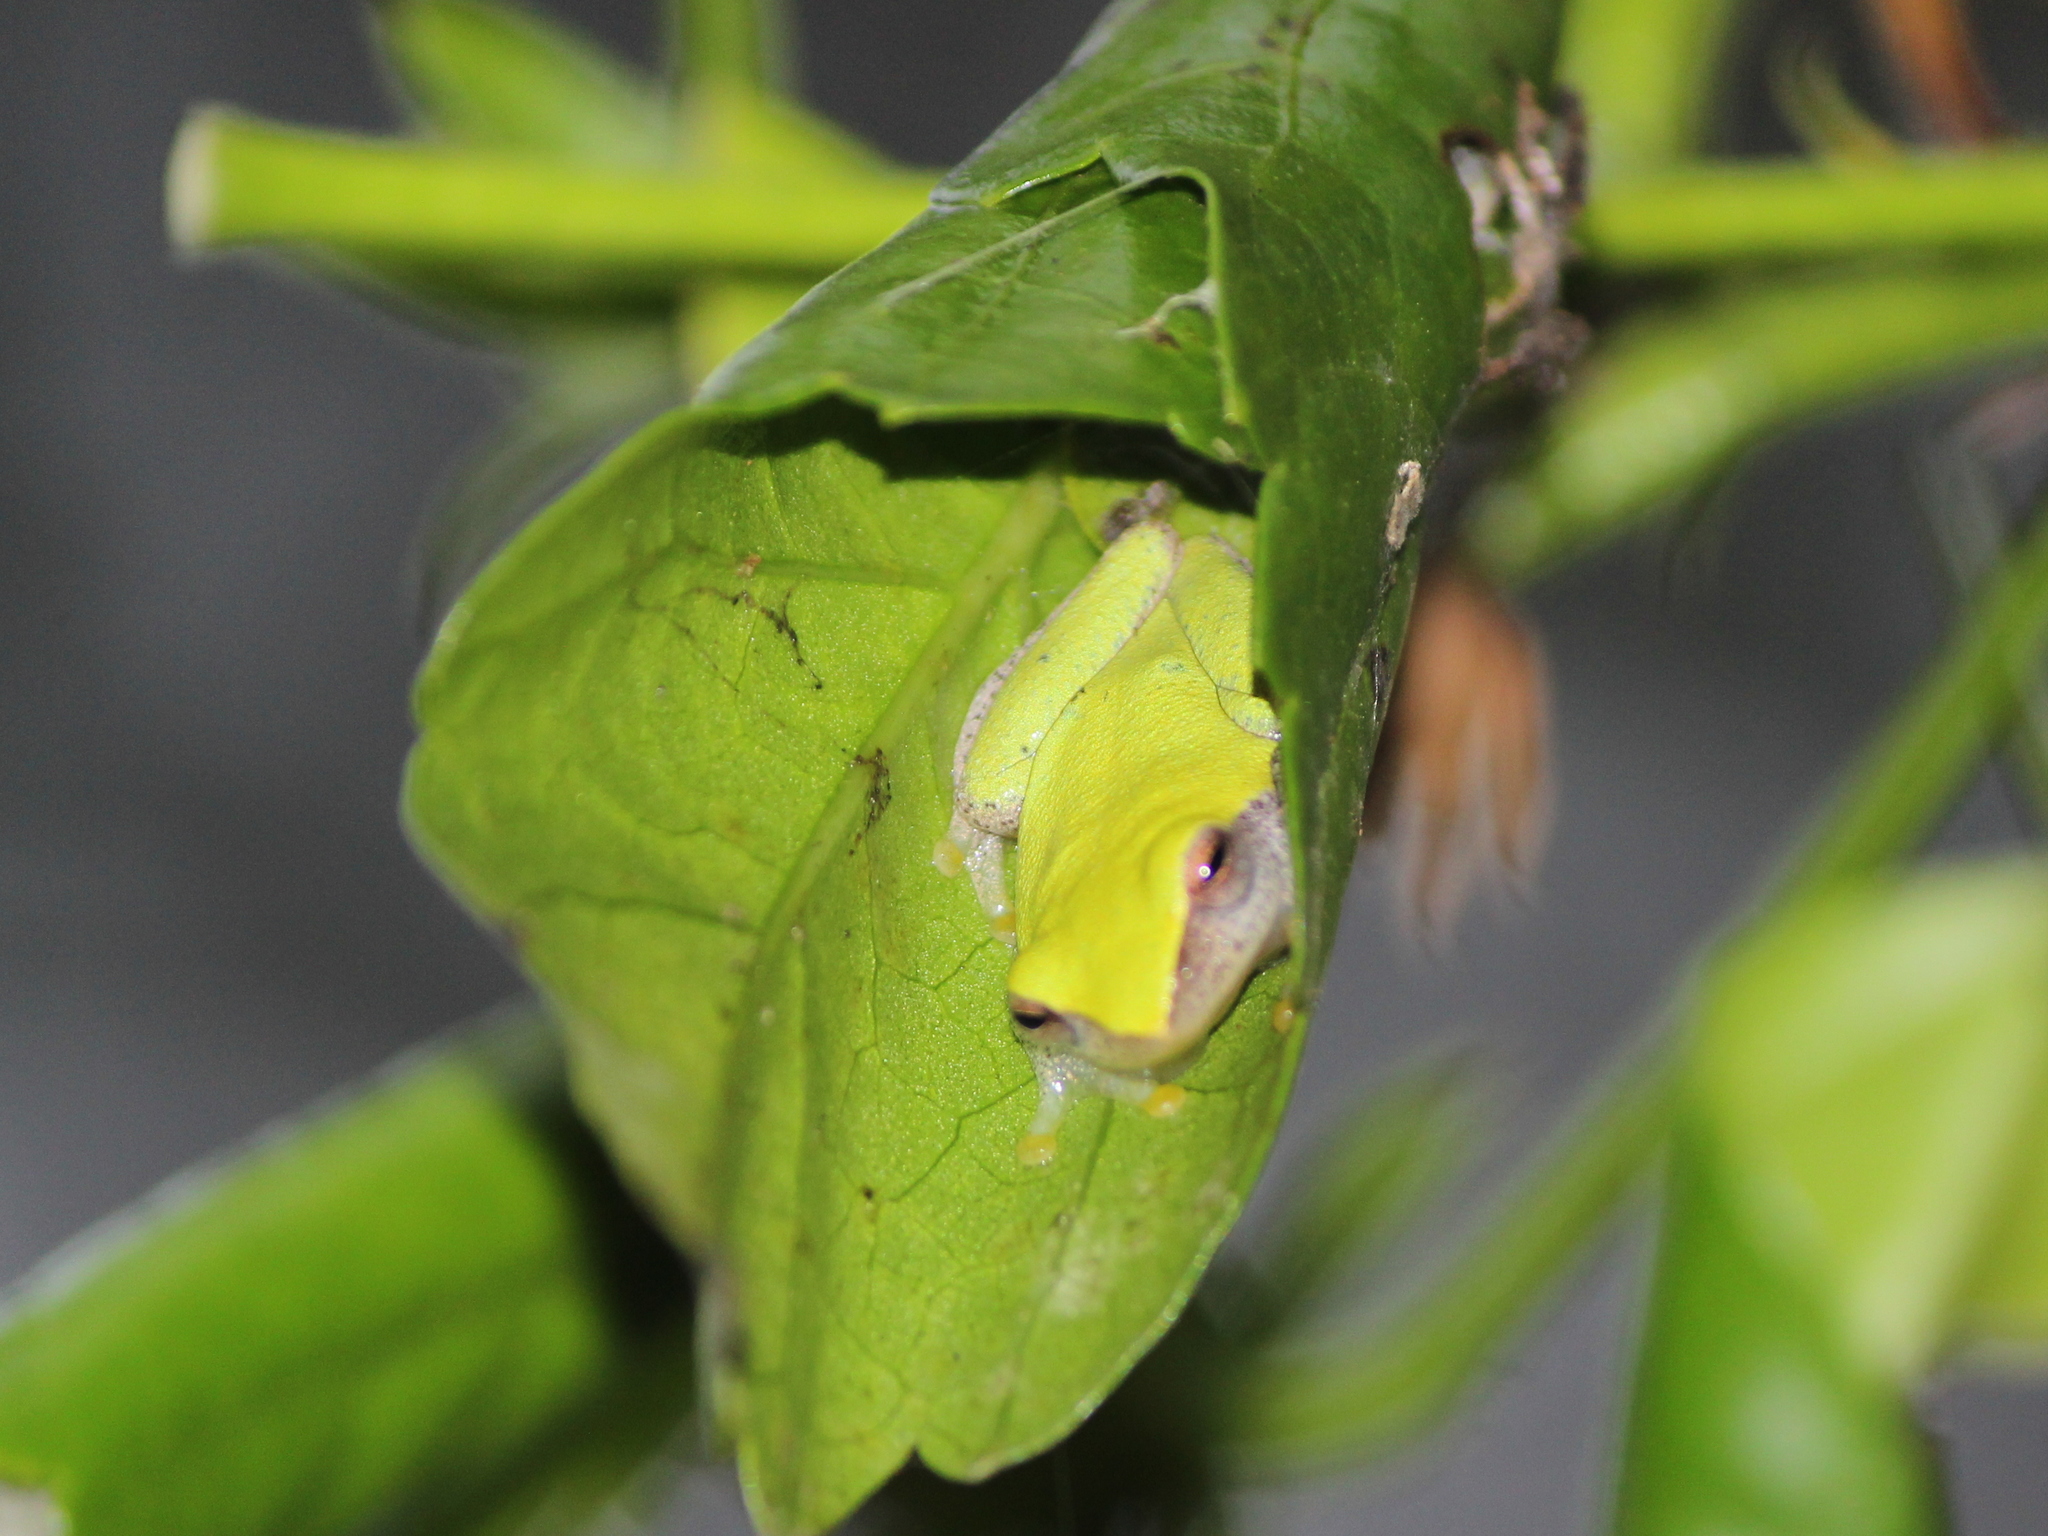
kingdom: Animalia
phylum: Chordata
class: Amphibia
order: Anura
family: Rhacophoridae
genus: Raorchestes
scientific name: Raorchestes akroparallagi
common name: Variable bush frog
